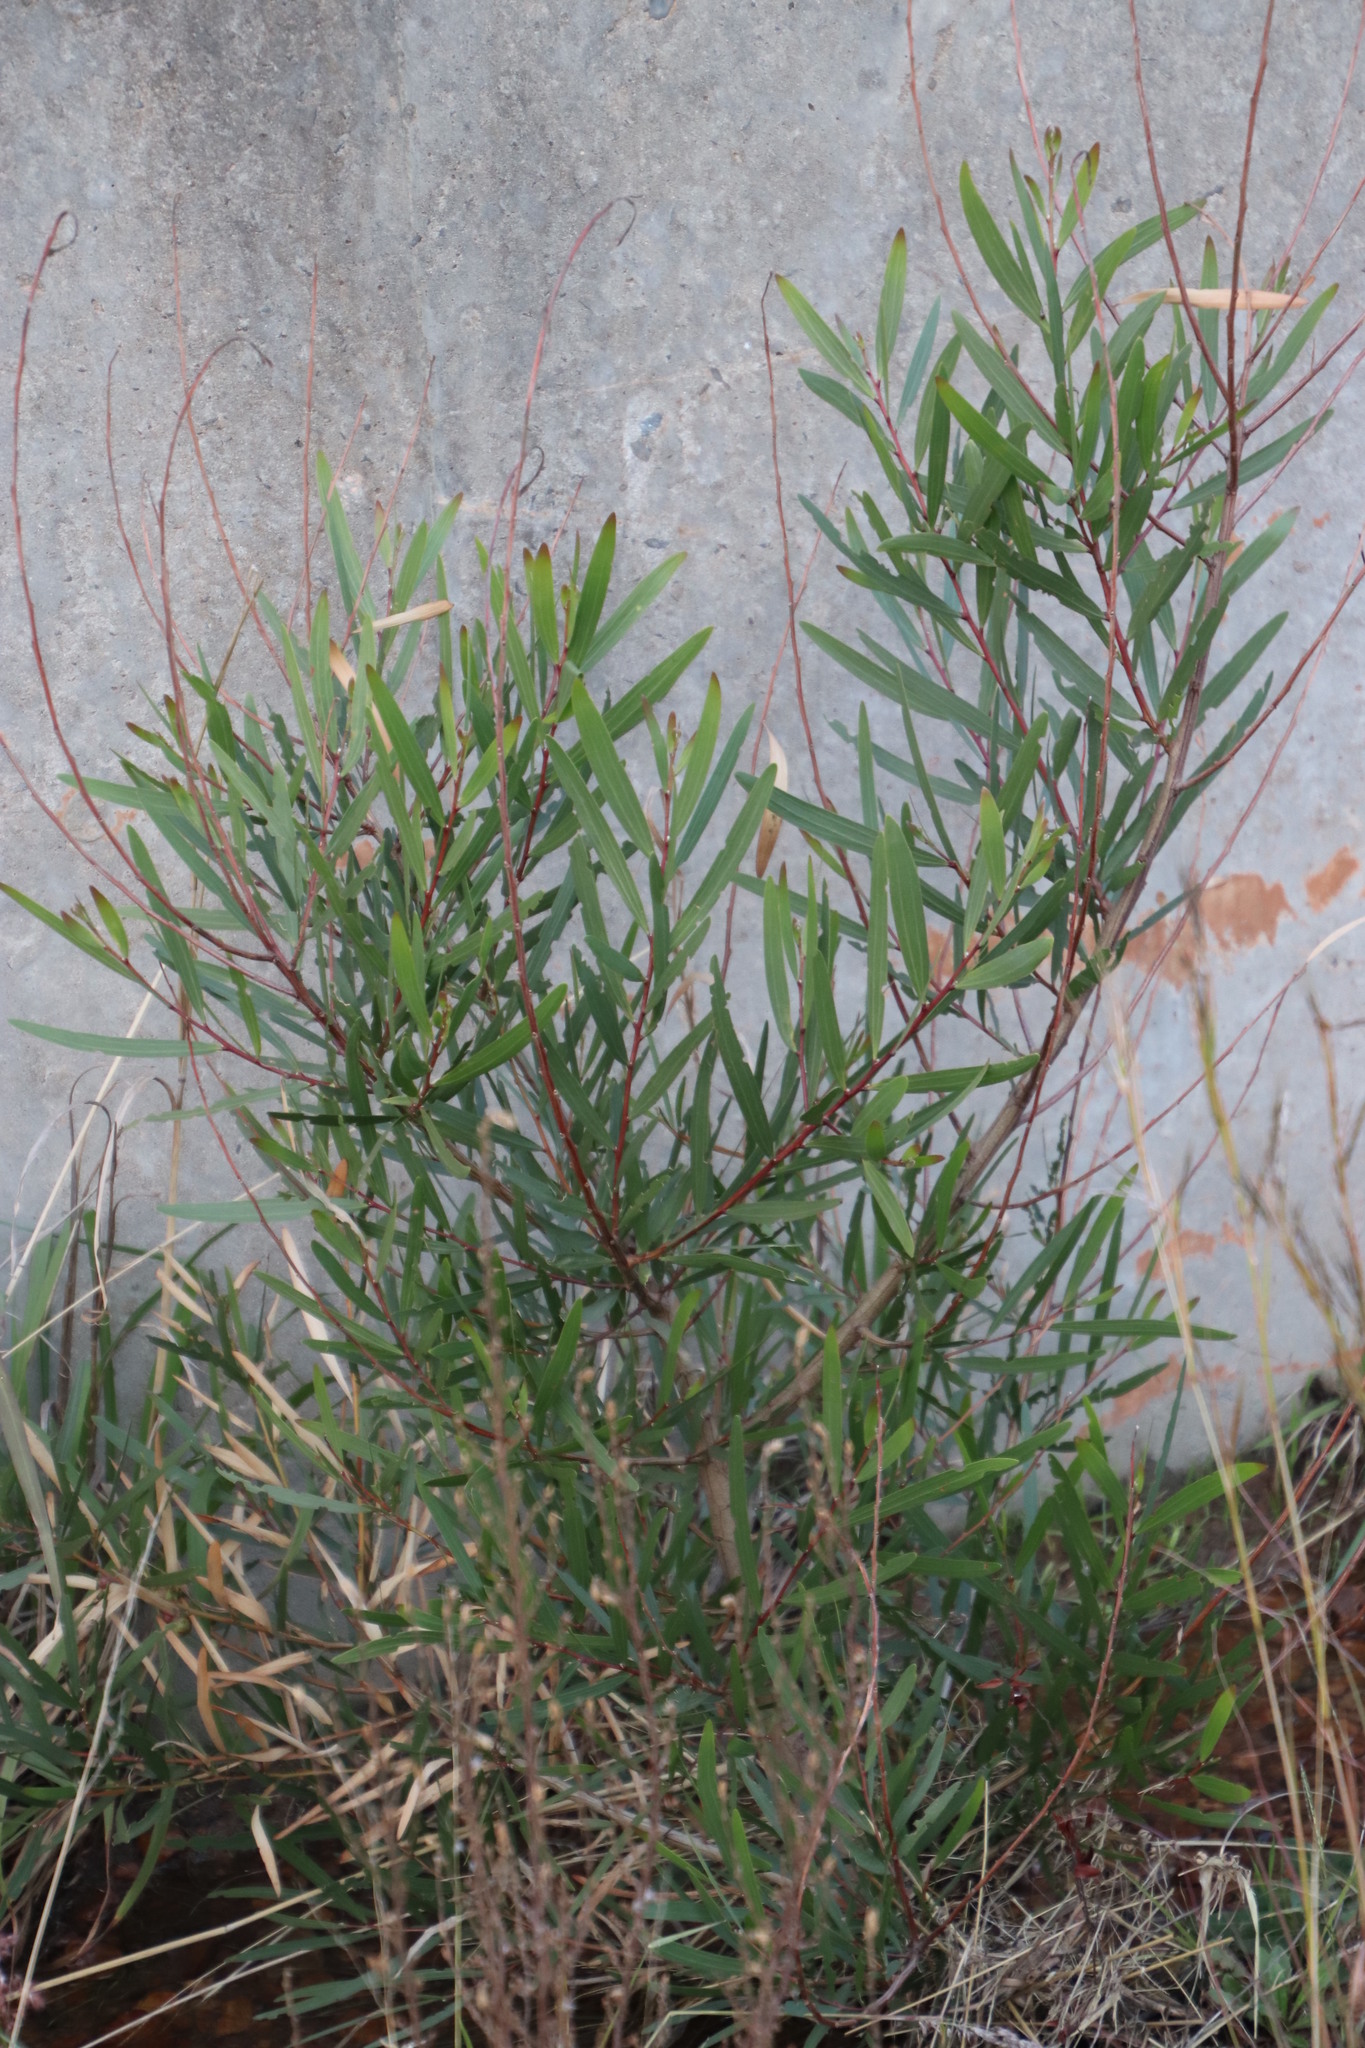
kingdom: Plantae
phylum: Tracheophyta
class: Magnoliopsida
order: Fabales
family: Fabaceae
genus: Acacia
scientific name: Acacia longifolia
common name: Sydney golden wattle
